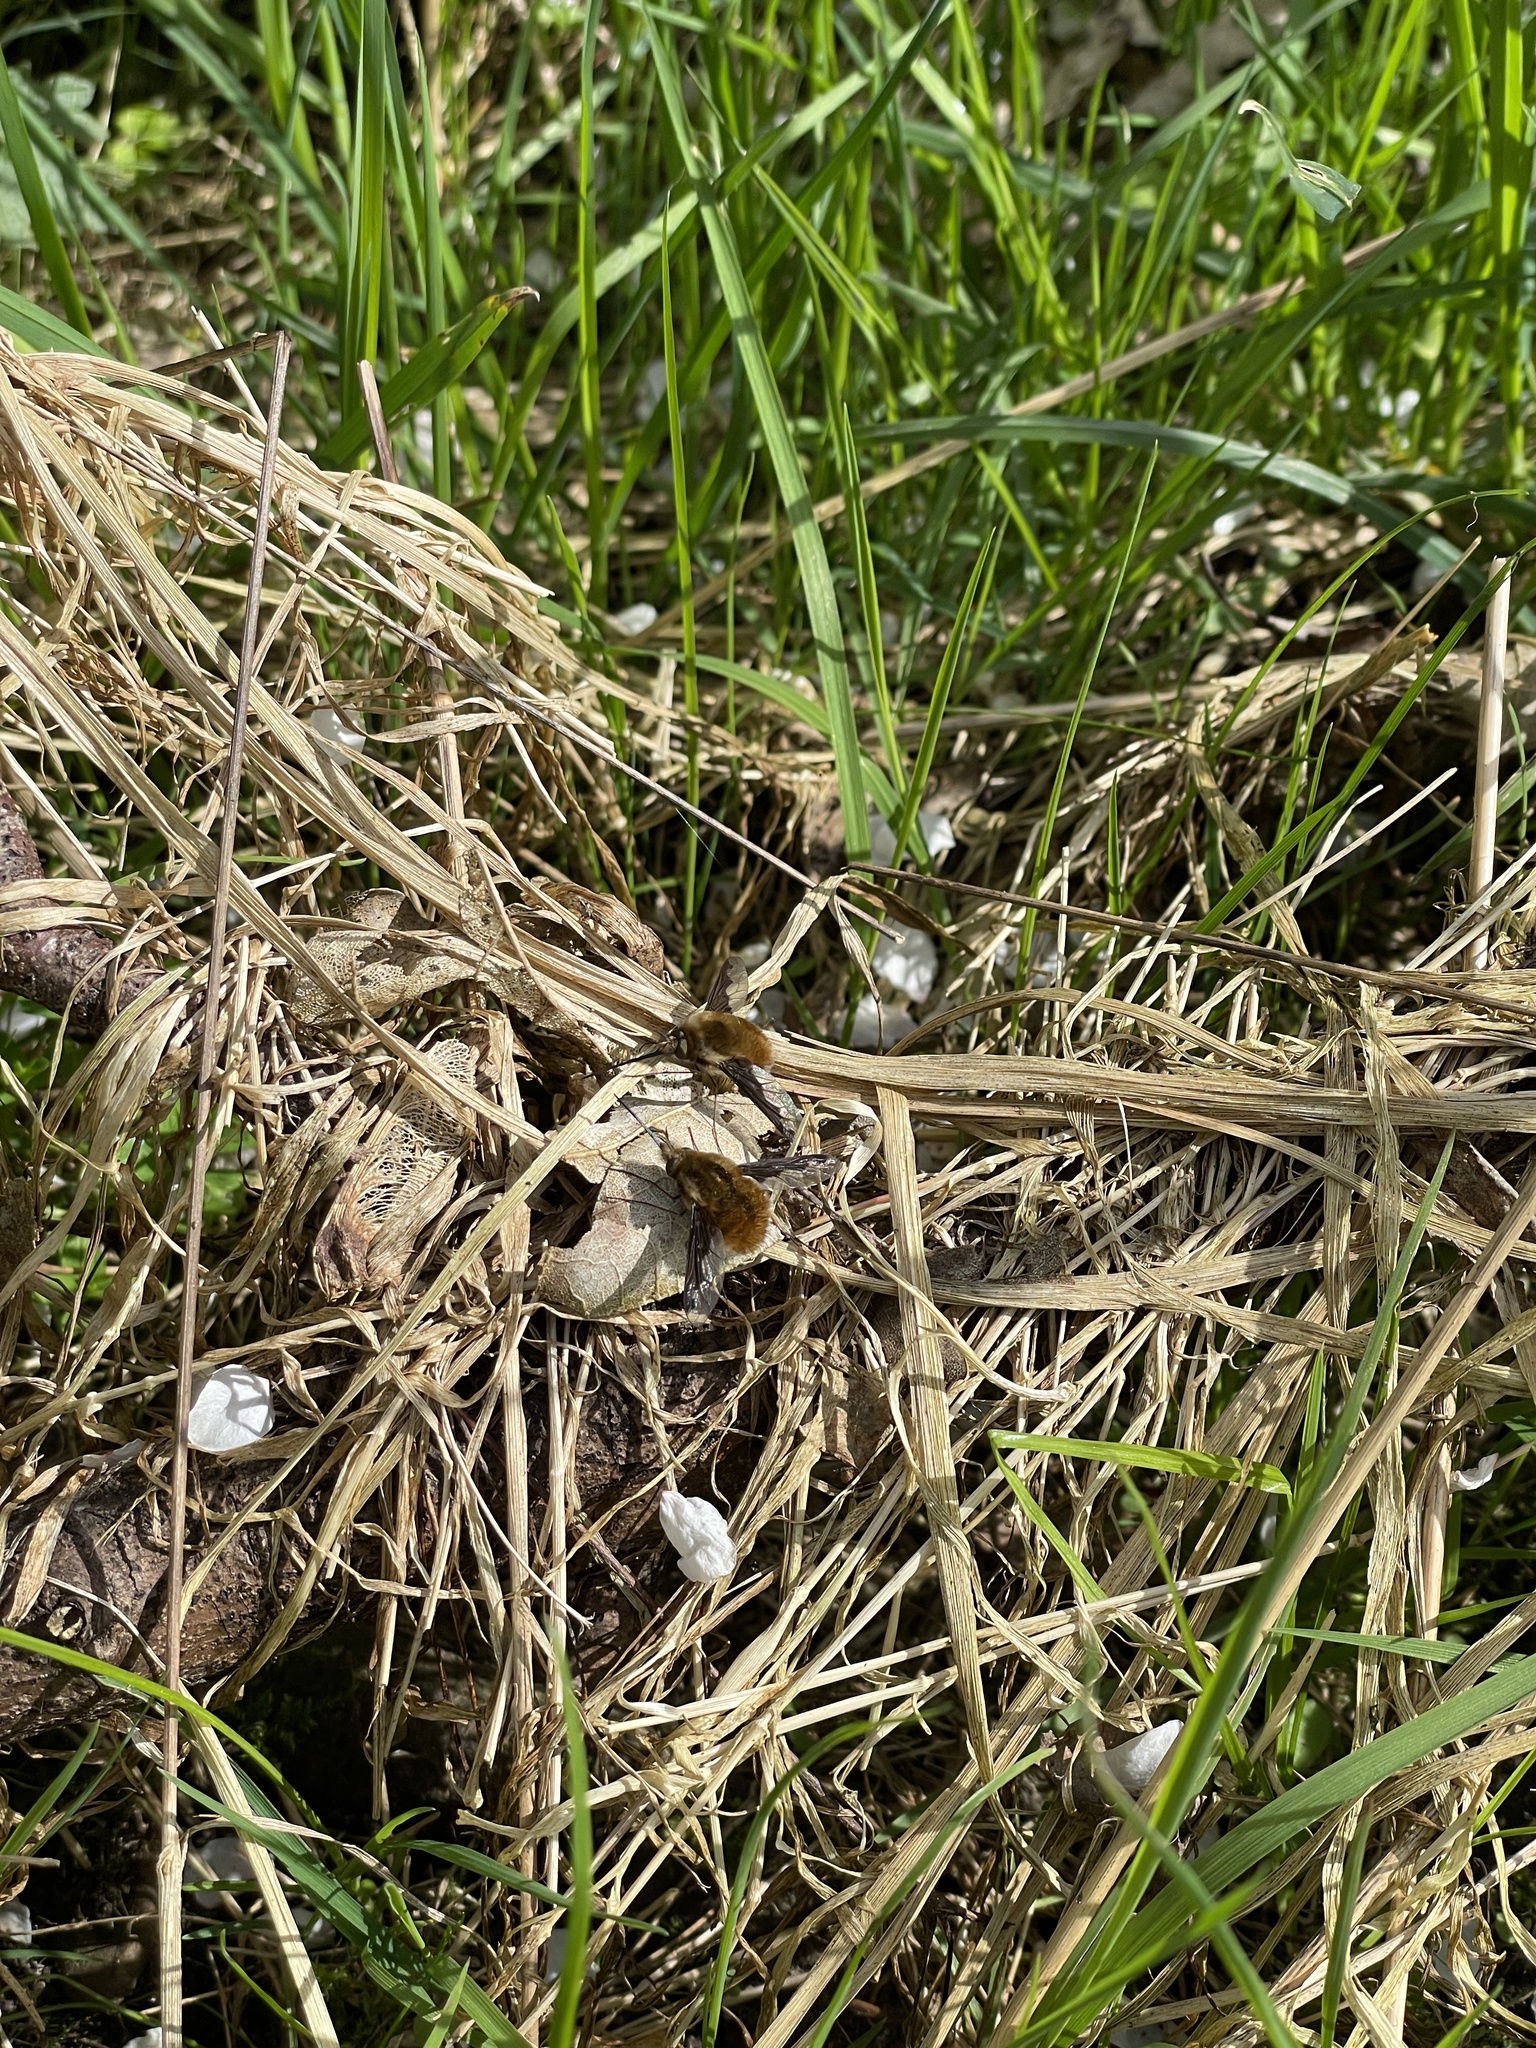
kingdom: Animalia
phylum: Arthropoda
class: Insecta
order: Diptera
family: Bombyliidae
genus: Bombylius
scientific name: Bombylius major
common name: Bee fly
